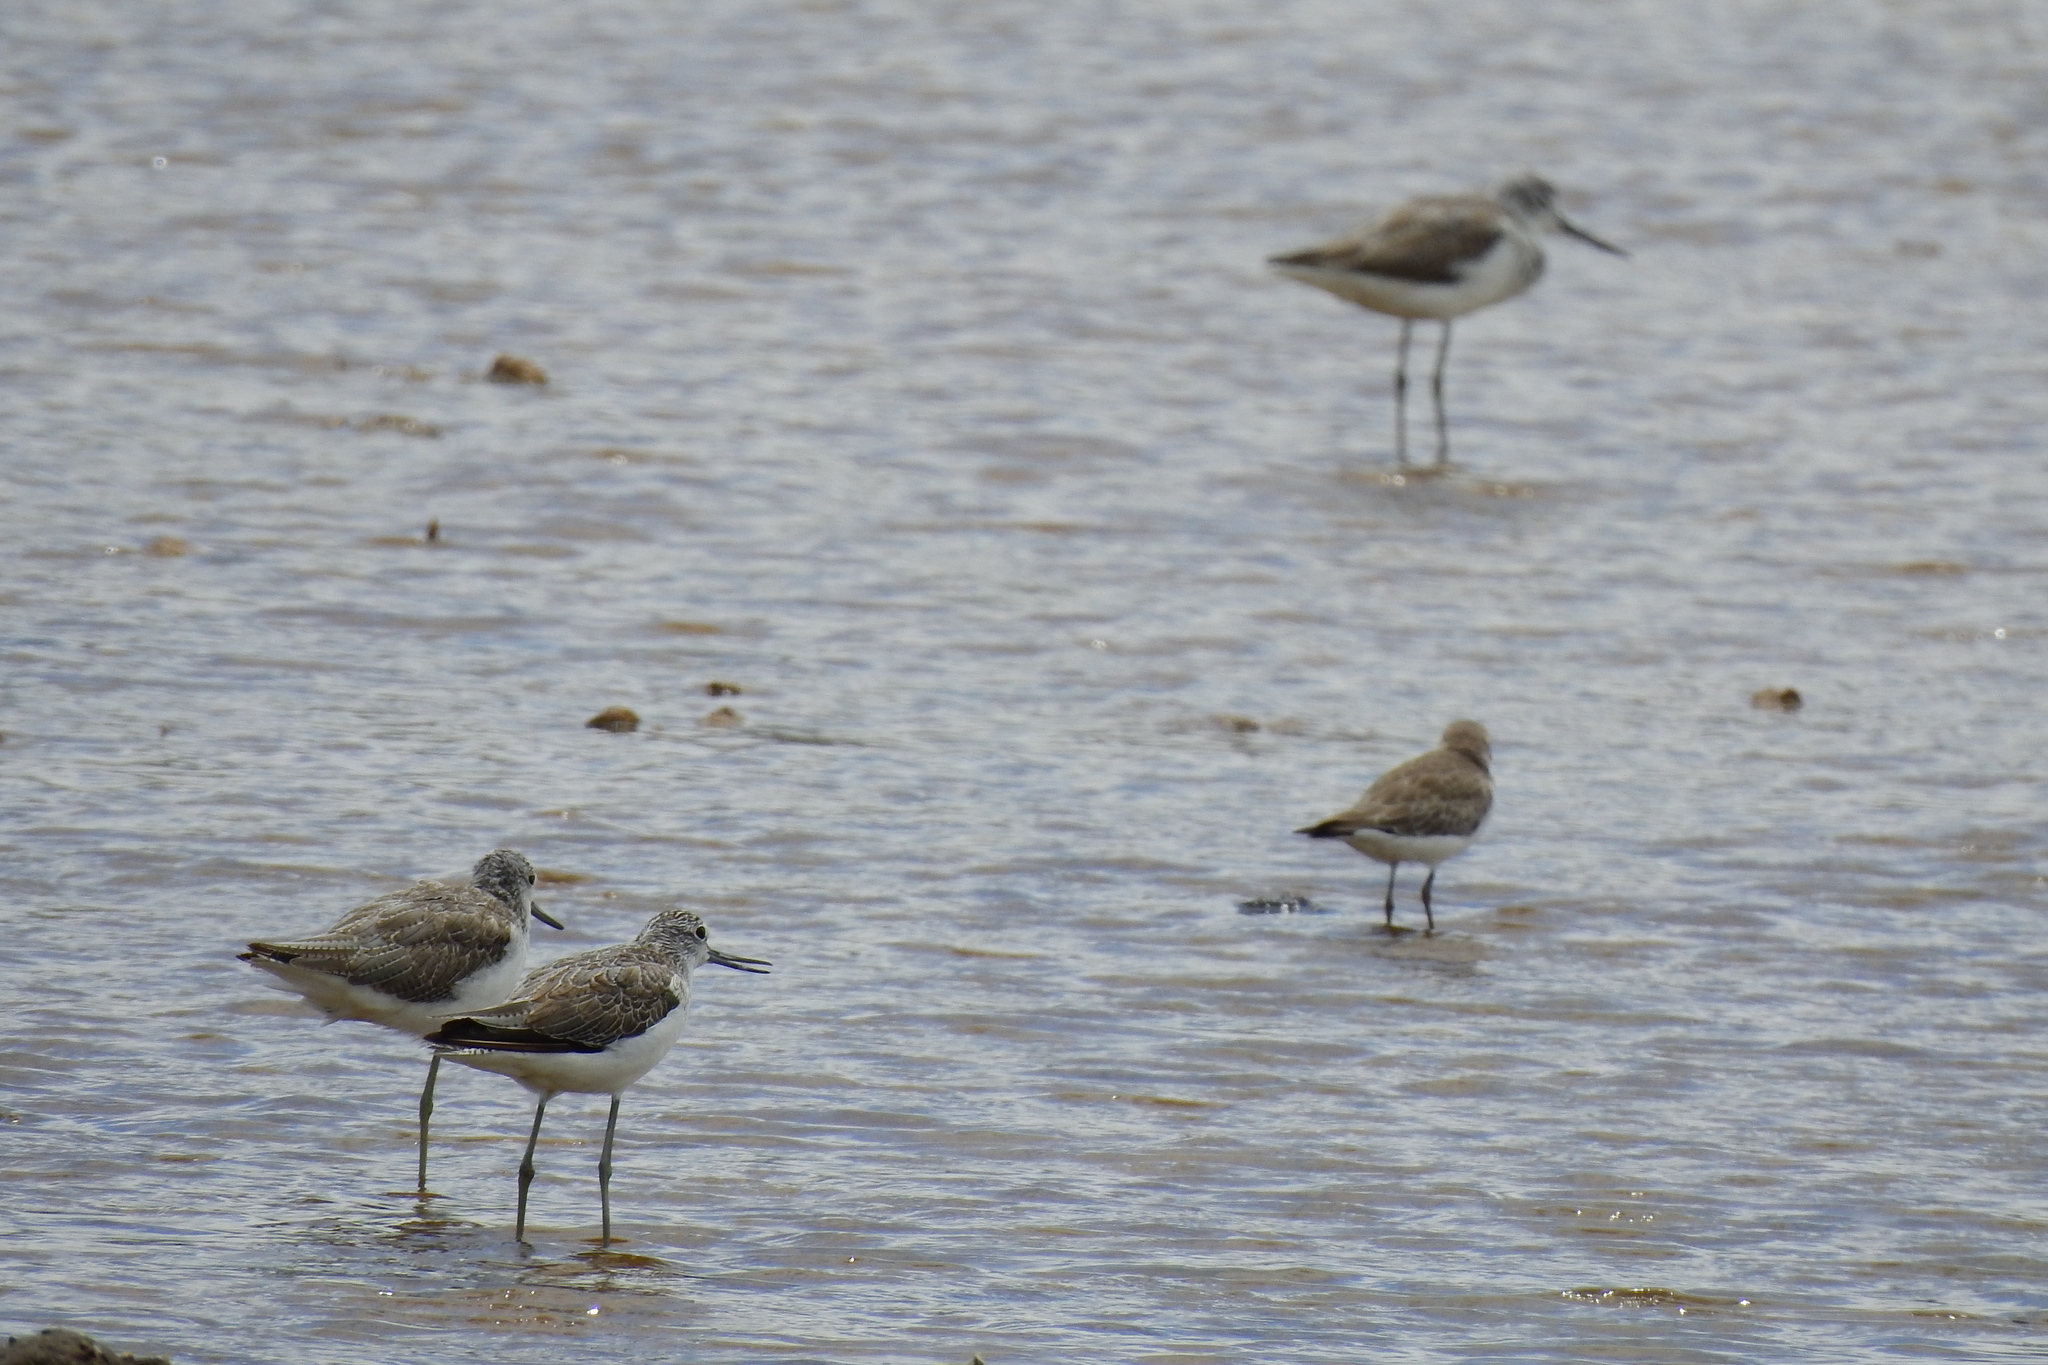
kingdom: Animalia
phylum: Chordata
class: Aves
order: Charadriiformes
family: Scolopacidae
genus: Tringa
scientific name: Tringa nebularia
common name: Common greenshank
